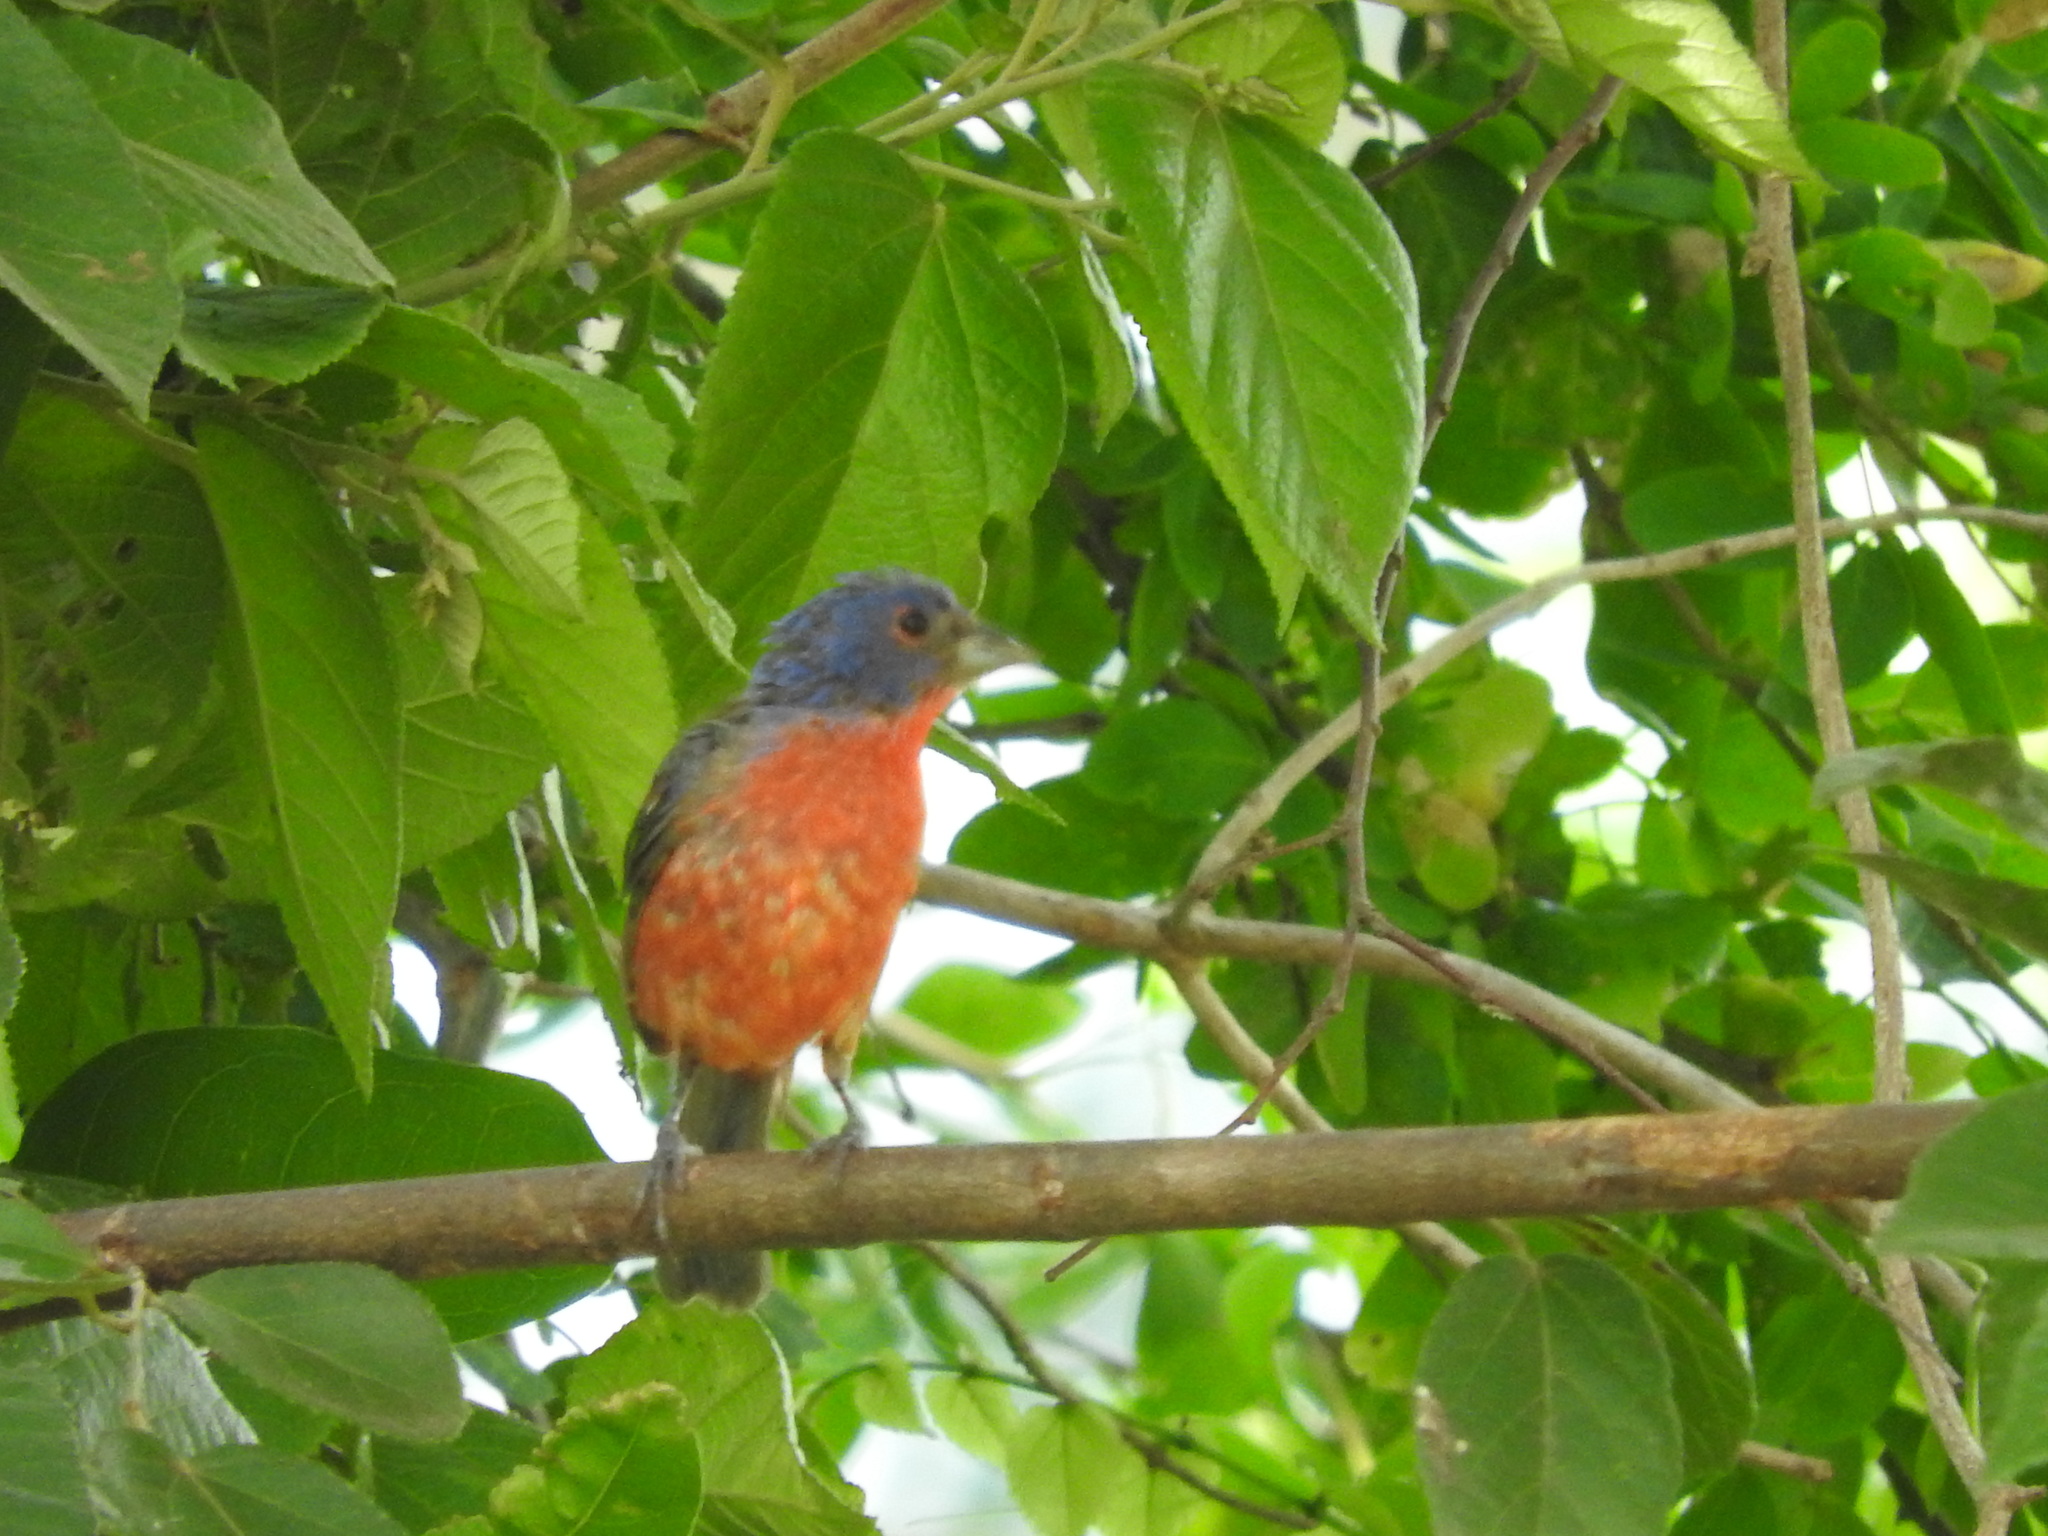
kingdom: Animalia
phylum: Chordata
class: Aves
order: Passeriformes
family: Cardinalidae
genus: Passerina
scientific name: Passerina ciris
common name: Painted bunting
